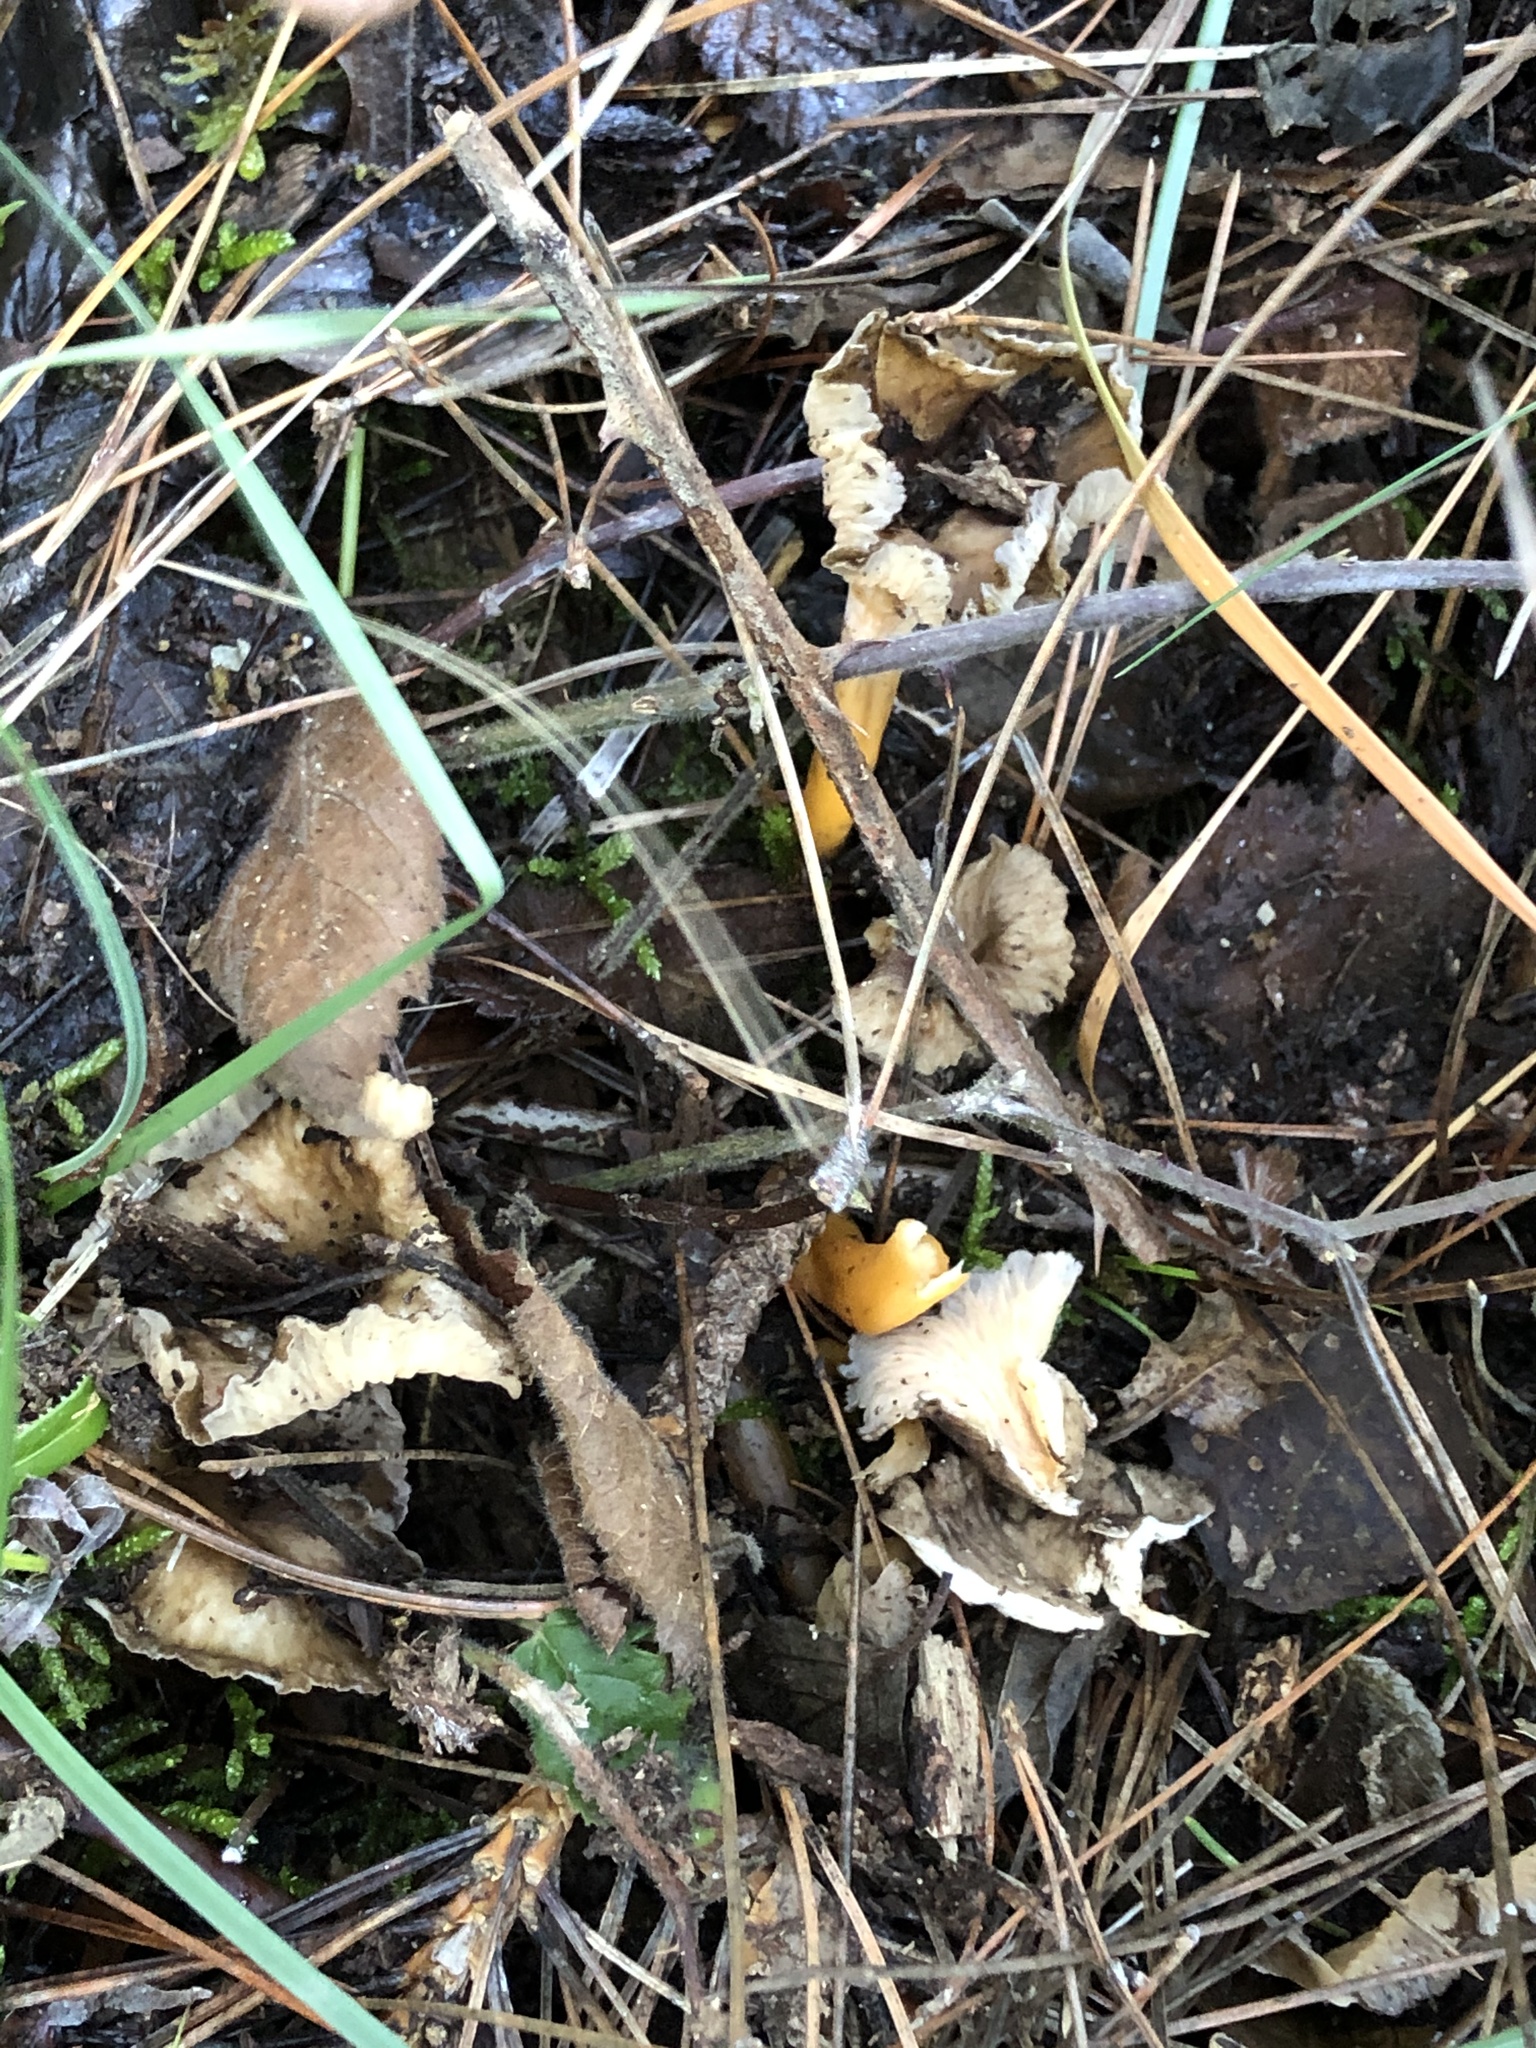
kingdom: Fungi
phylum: Basidiomycota
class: Agaricomycetes
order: Cantharellales
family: Hydnaceae
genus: Craterellus
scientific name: Craterellus lutescens
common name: Golden chanterelle
